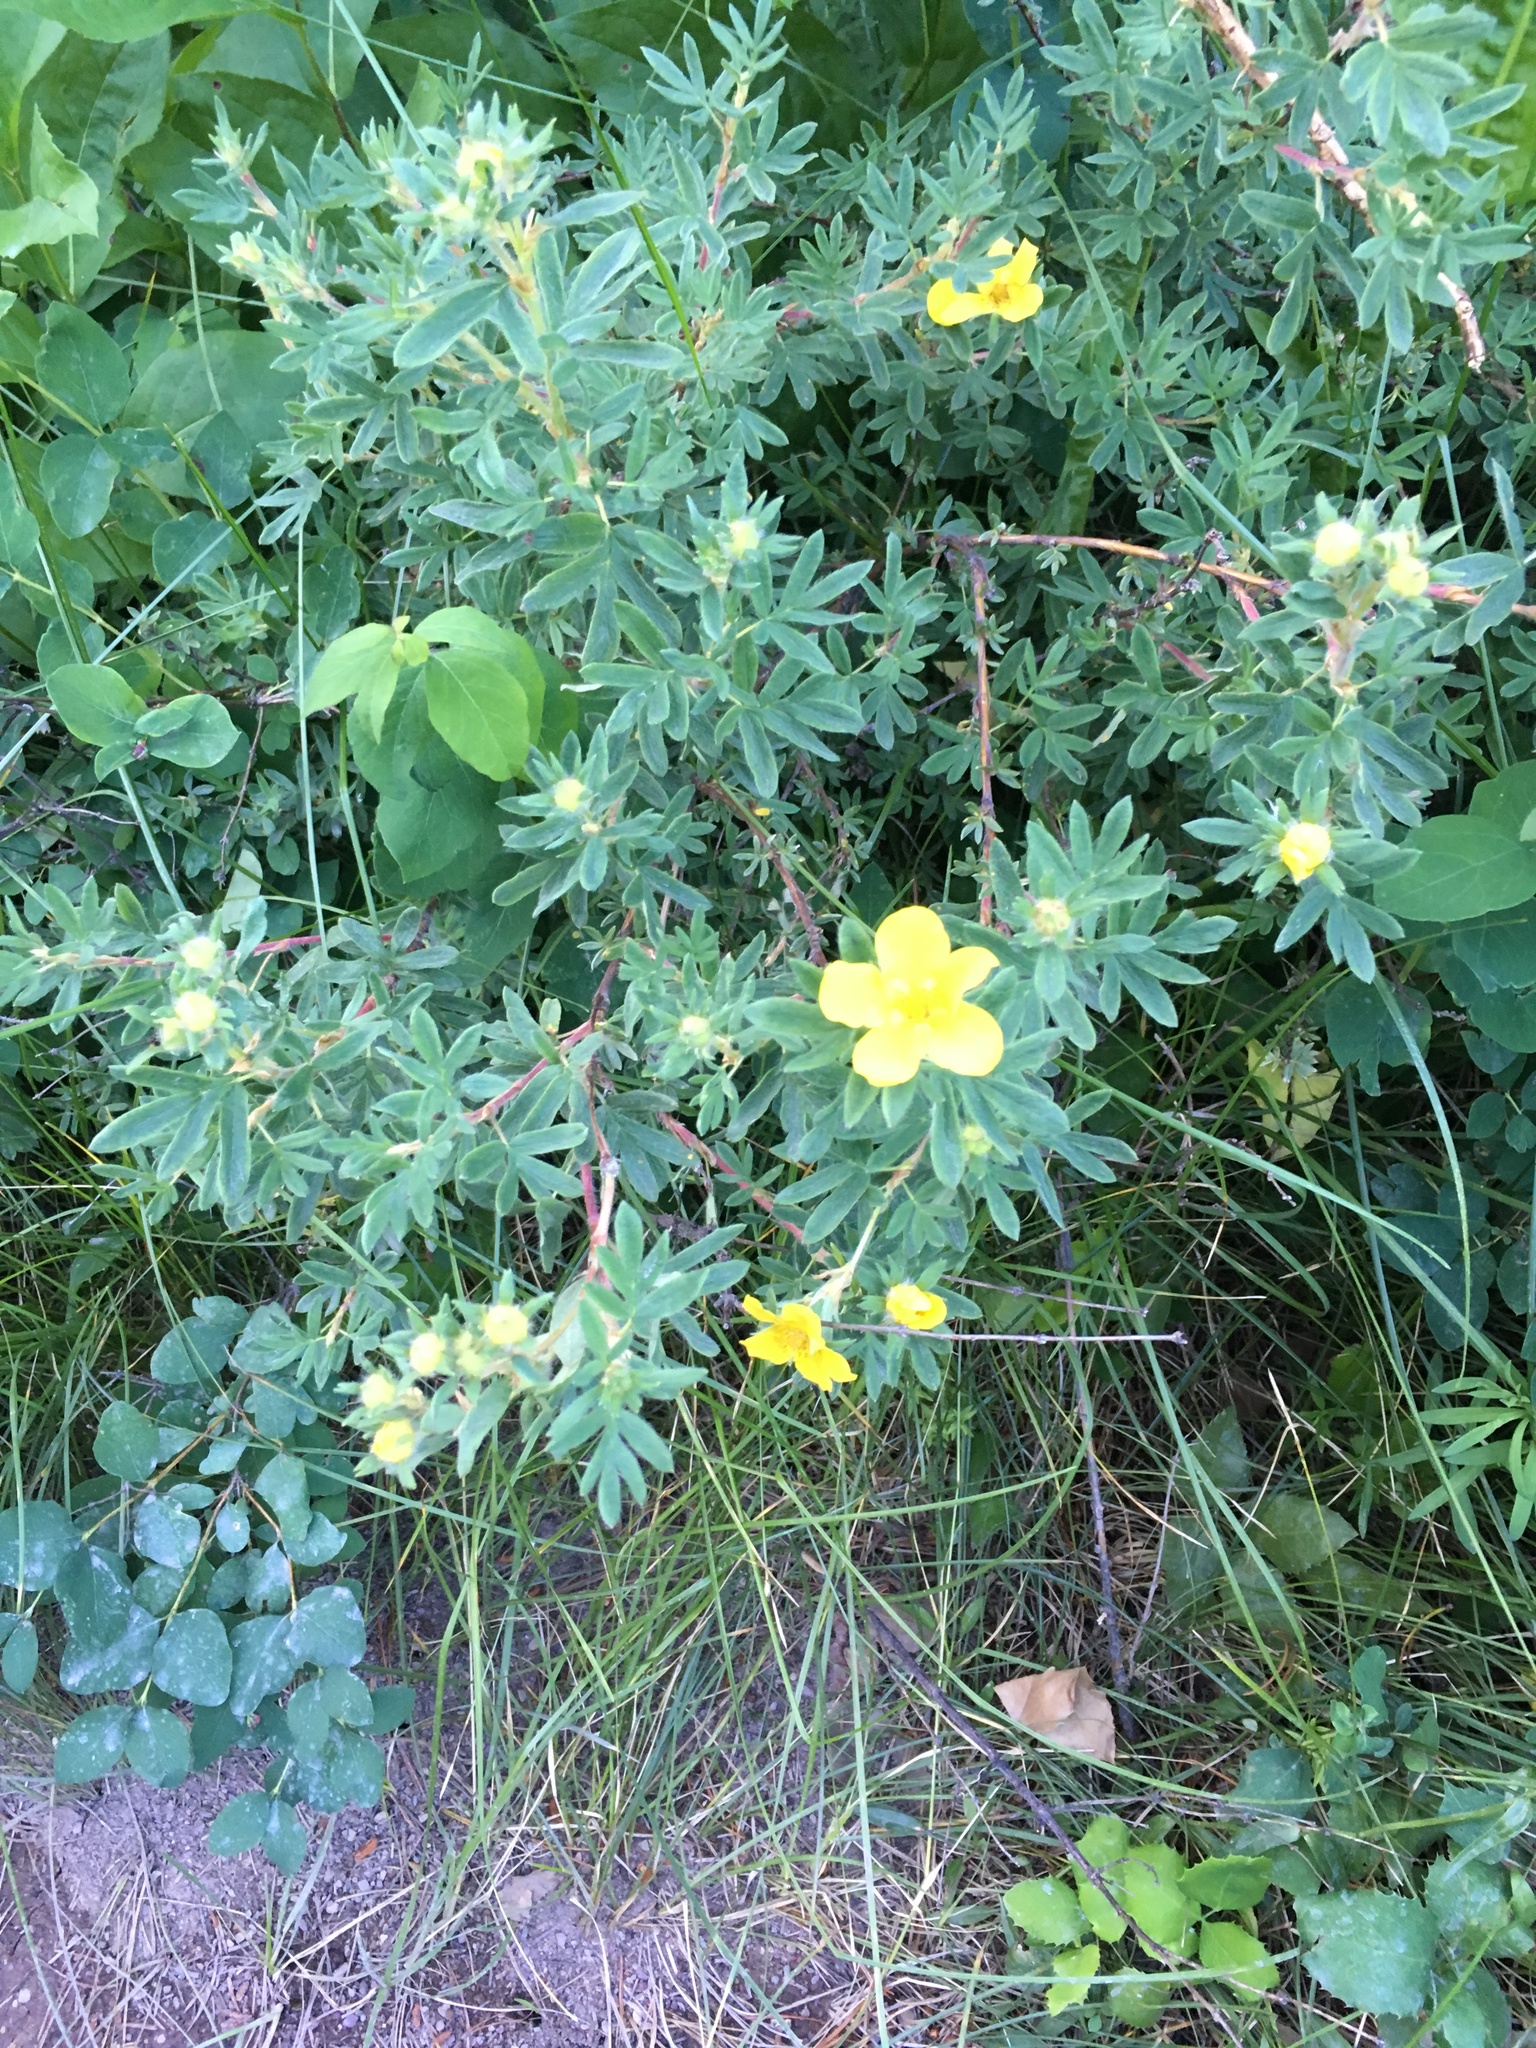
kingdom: Plantae
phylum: Tracheophyta
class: Magnoliopsida
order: Rosales
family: Rosaceae
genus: Dasiphora
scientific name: Dasiphora fruticosa
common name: Shrubby cinquefoil
